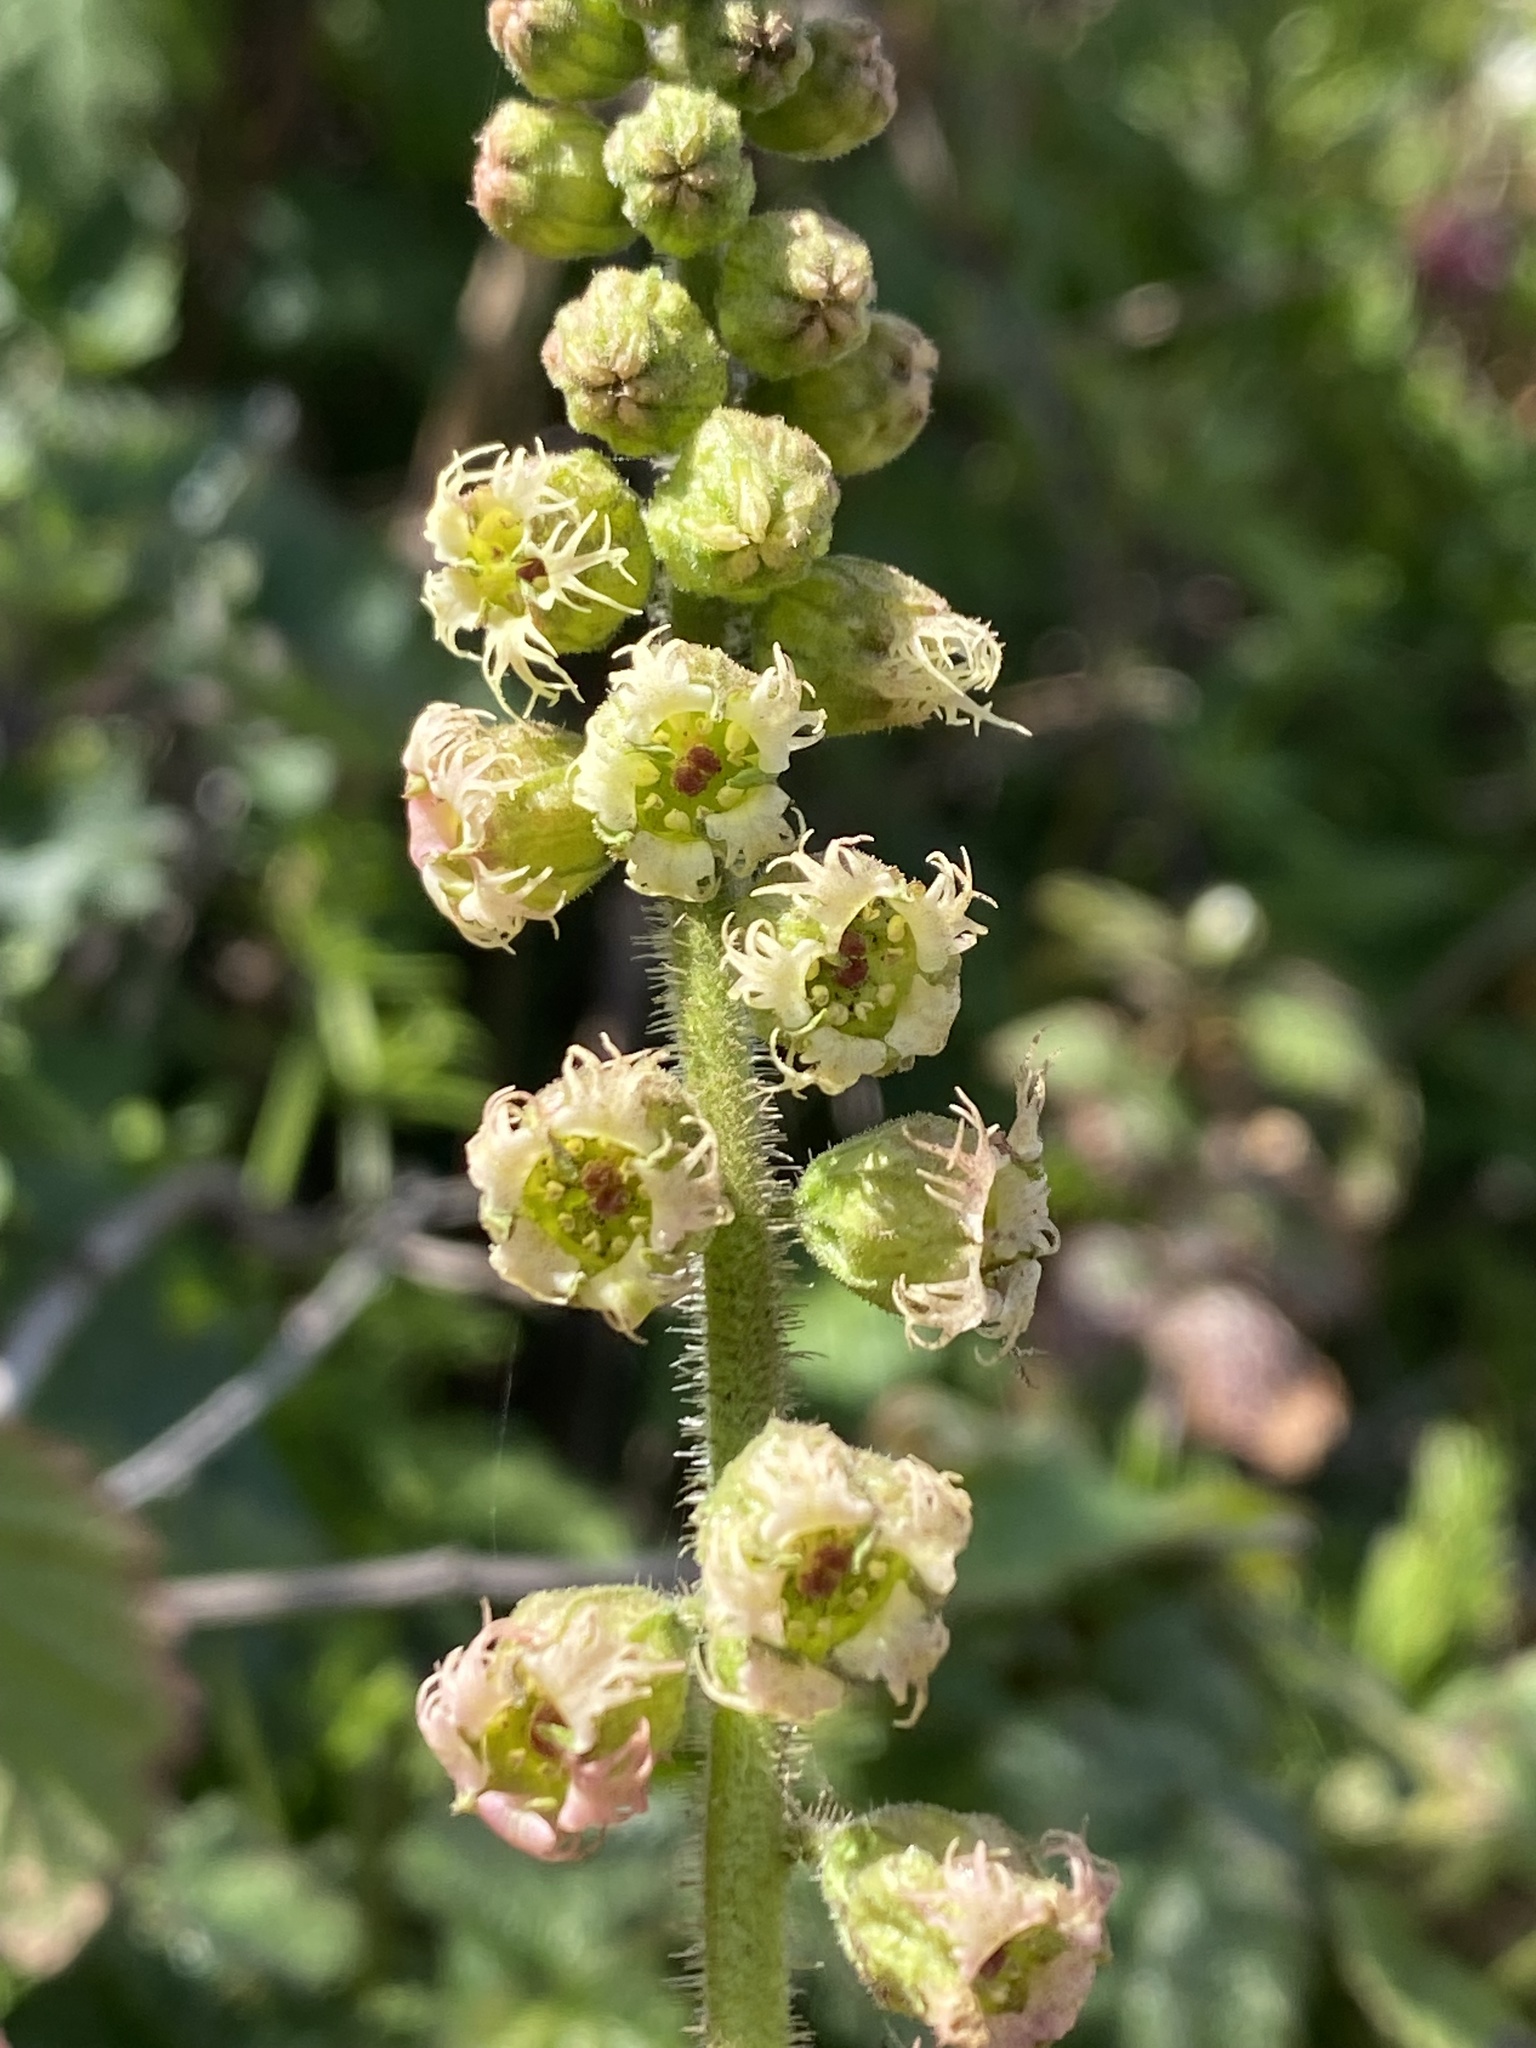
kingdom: Plantae
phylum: Tracheophyta
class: Magnoliopsida
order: Saxifragales
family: Saxifragaceae
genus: Tellima
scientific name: Tellima grandiflora
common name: Fringecups
